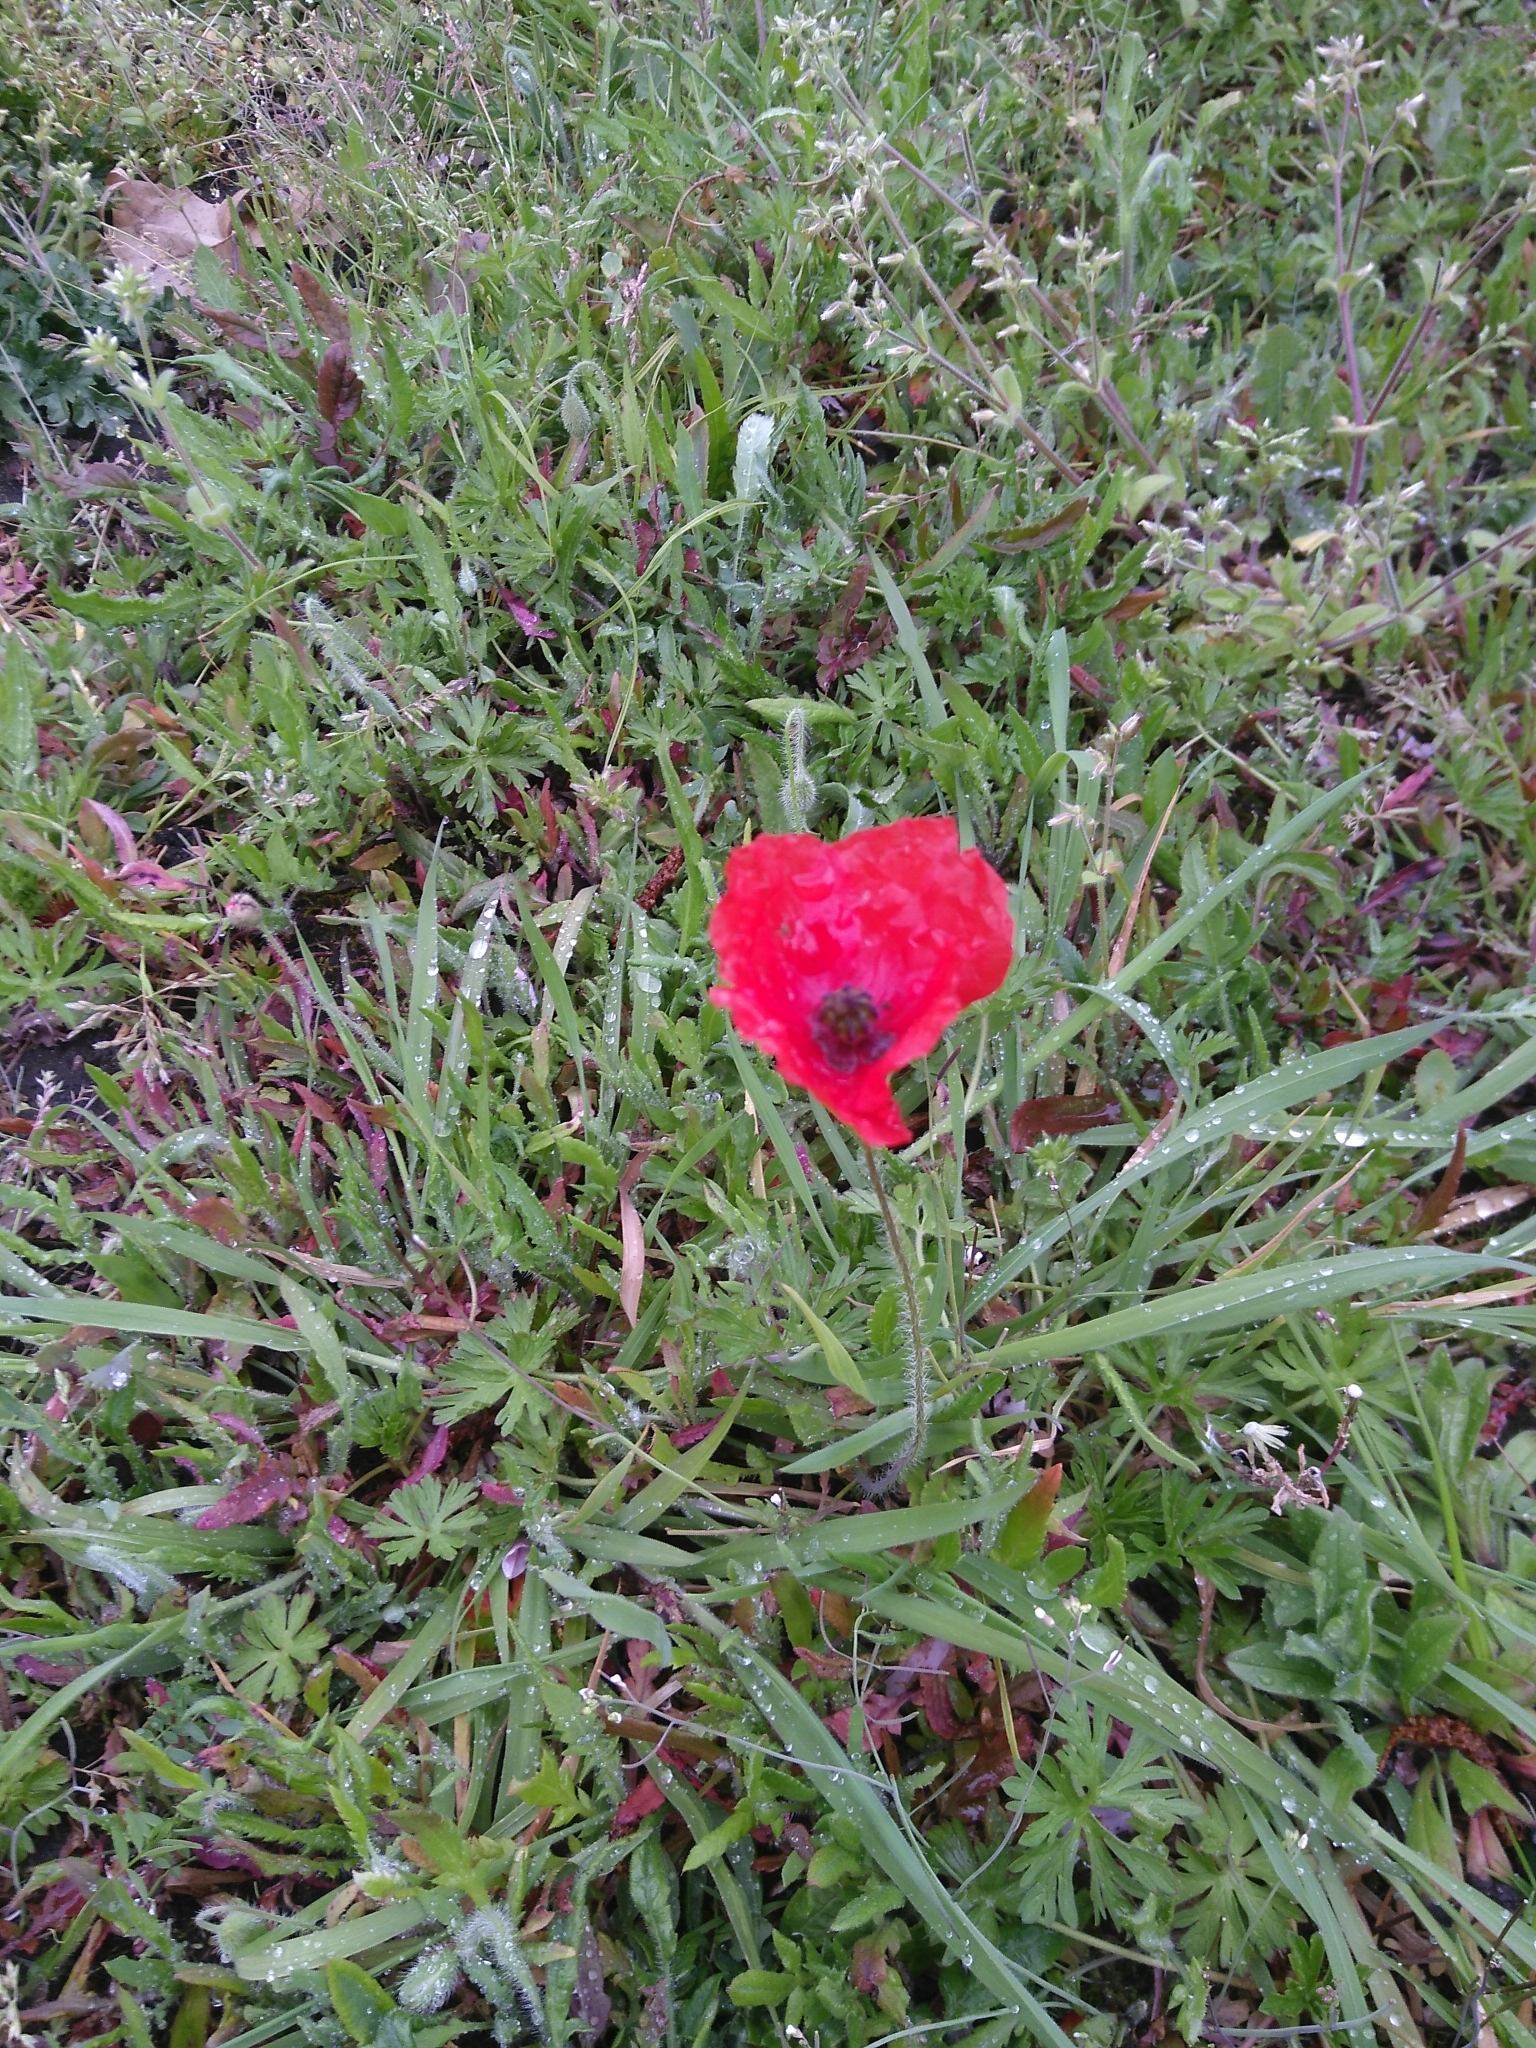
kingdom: Plantae
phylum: Tracheophyta
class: Magnoliopsida
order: Ranunculales
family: Papaveraceae
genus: Papaver
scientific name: Papaver rhoeas
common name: Corn poppy
